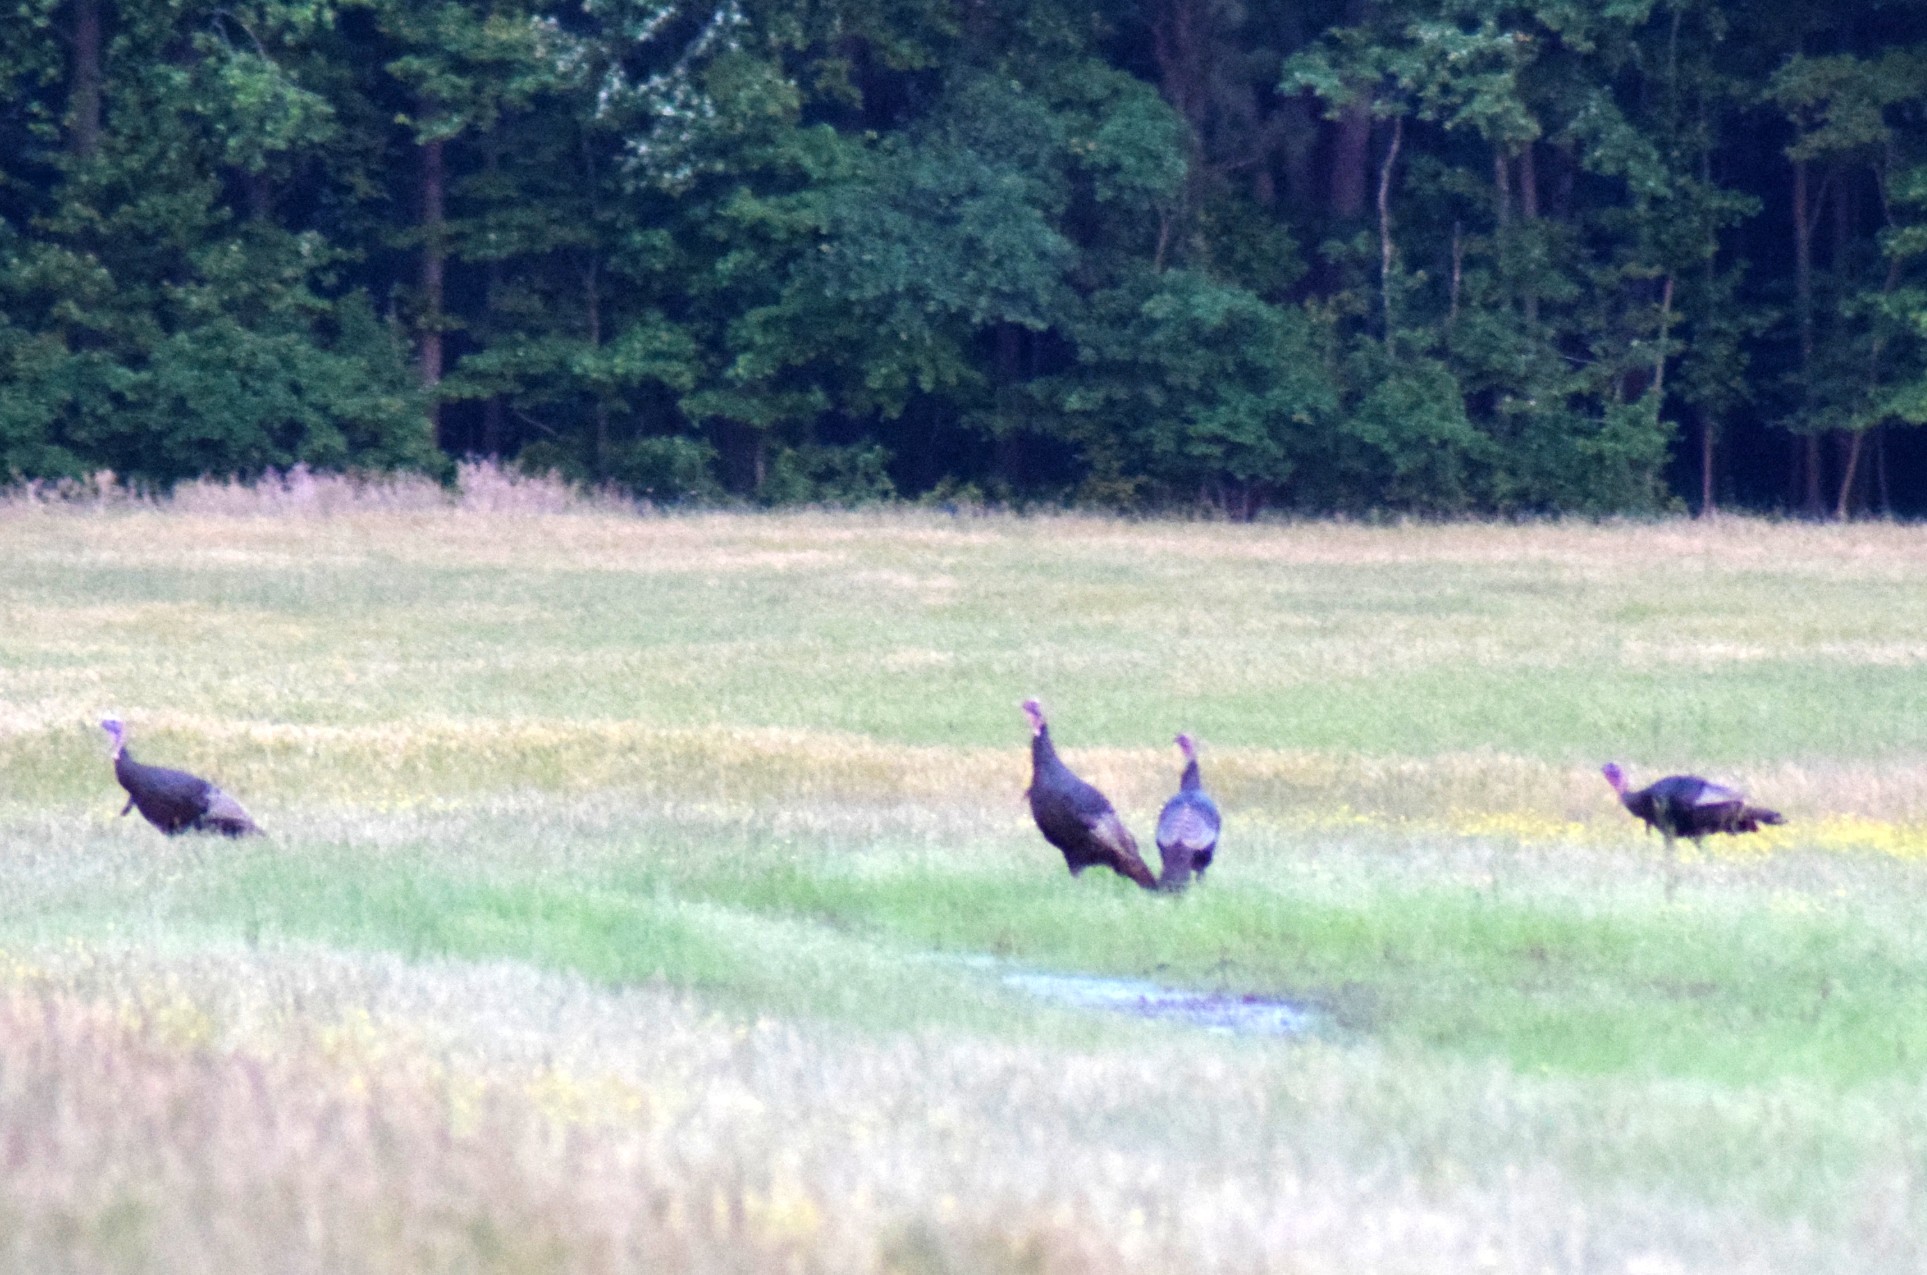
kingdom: Animalia
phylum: Chordata
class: Aves
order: Galliformes
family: Phasianidae
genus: Meleagris
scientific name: Meleagris gallopavo
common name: Wild turkey
